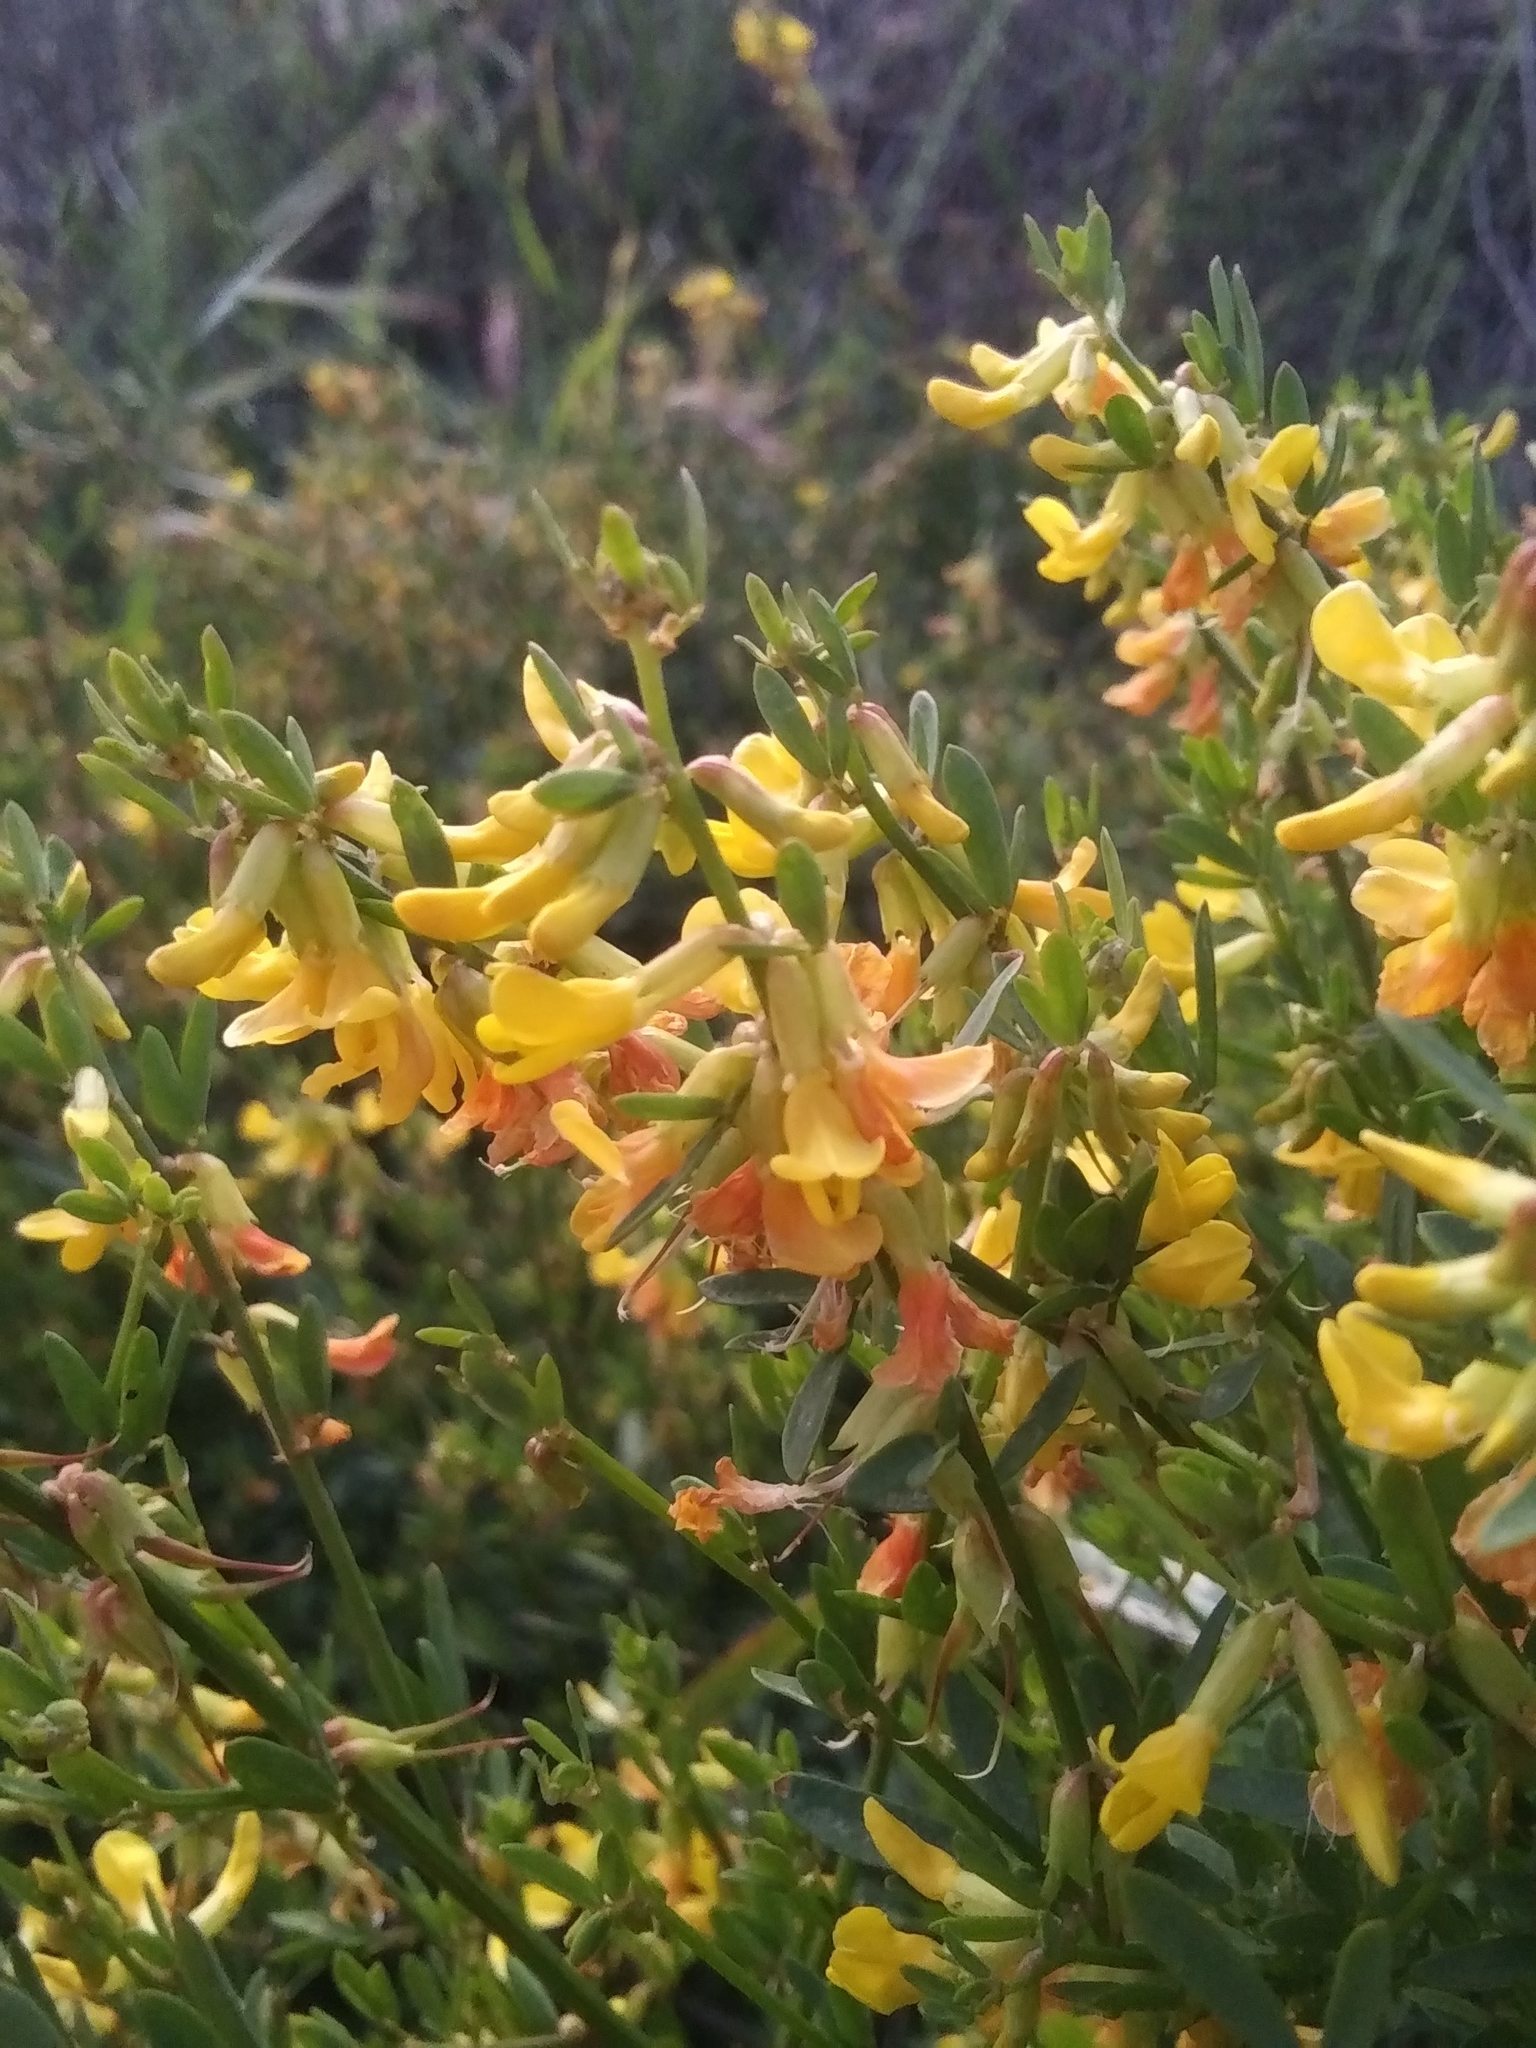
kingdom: Plantae
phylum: Tracheophyta
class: Magnoliopsida
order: Fabales
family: Fabaceae
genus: Acmispon
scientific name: Acmispon glaber
